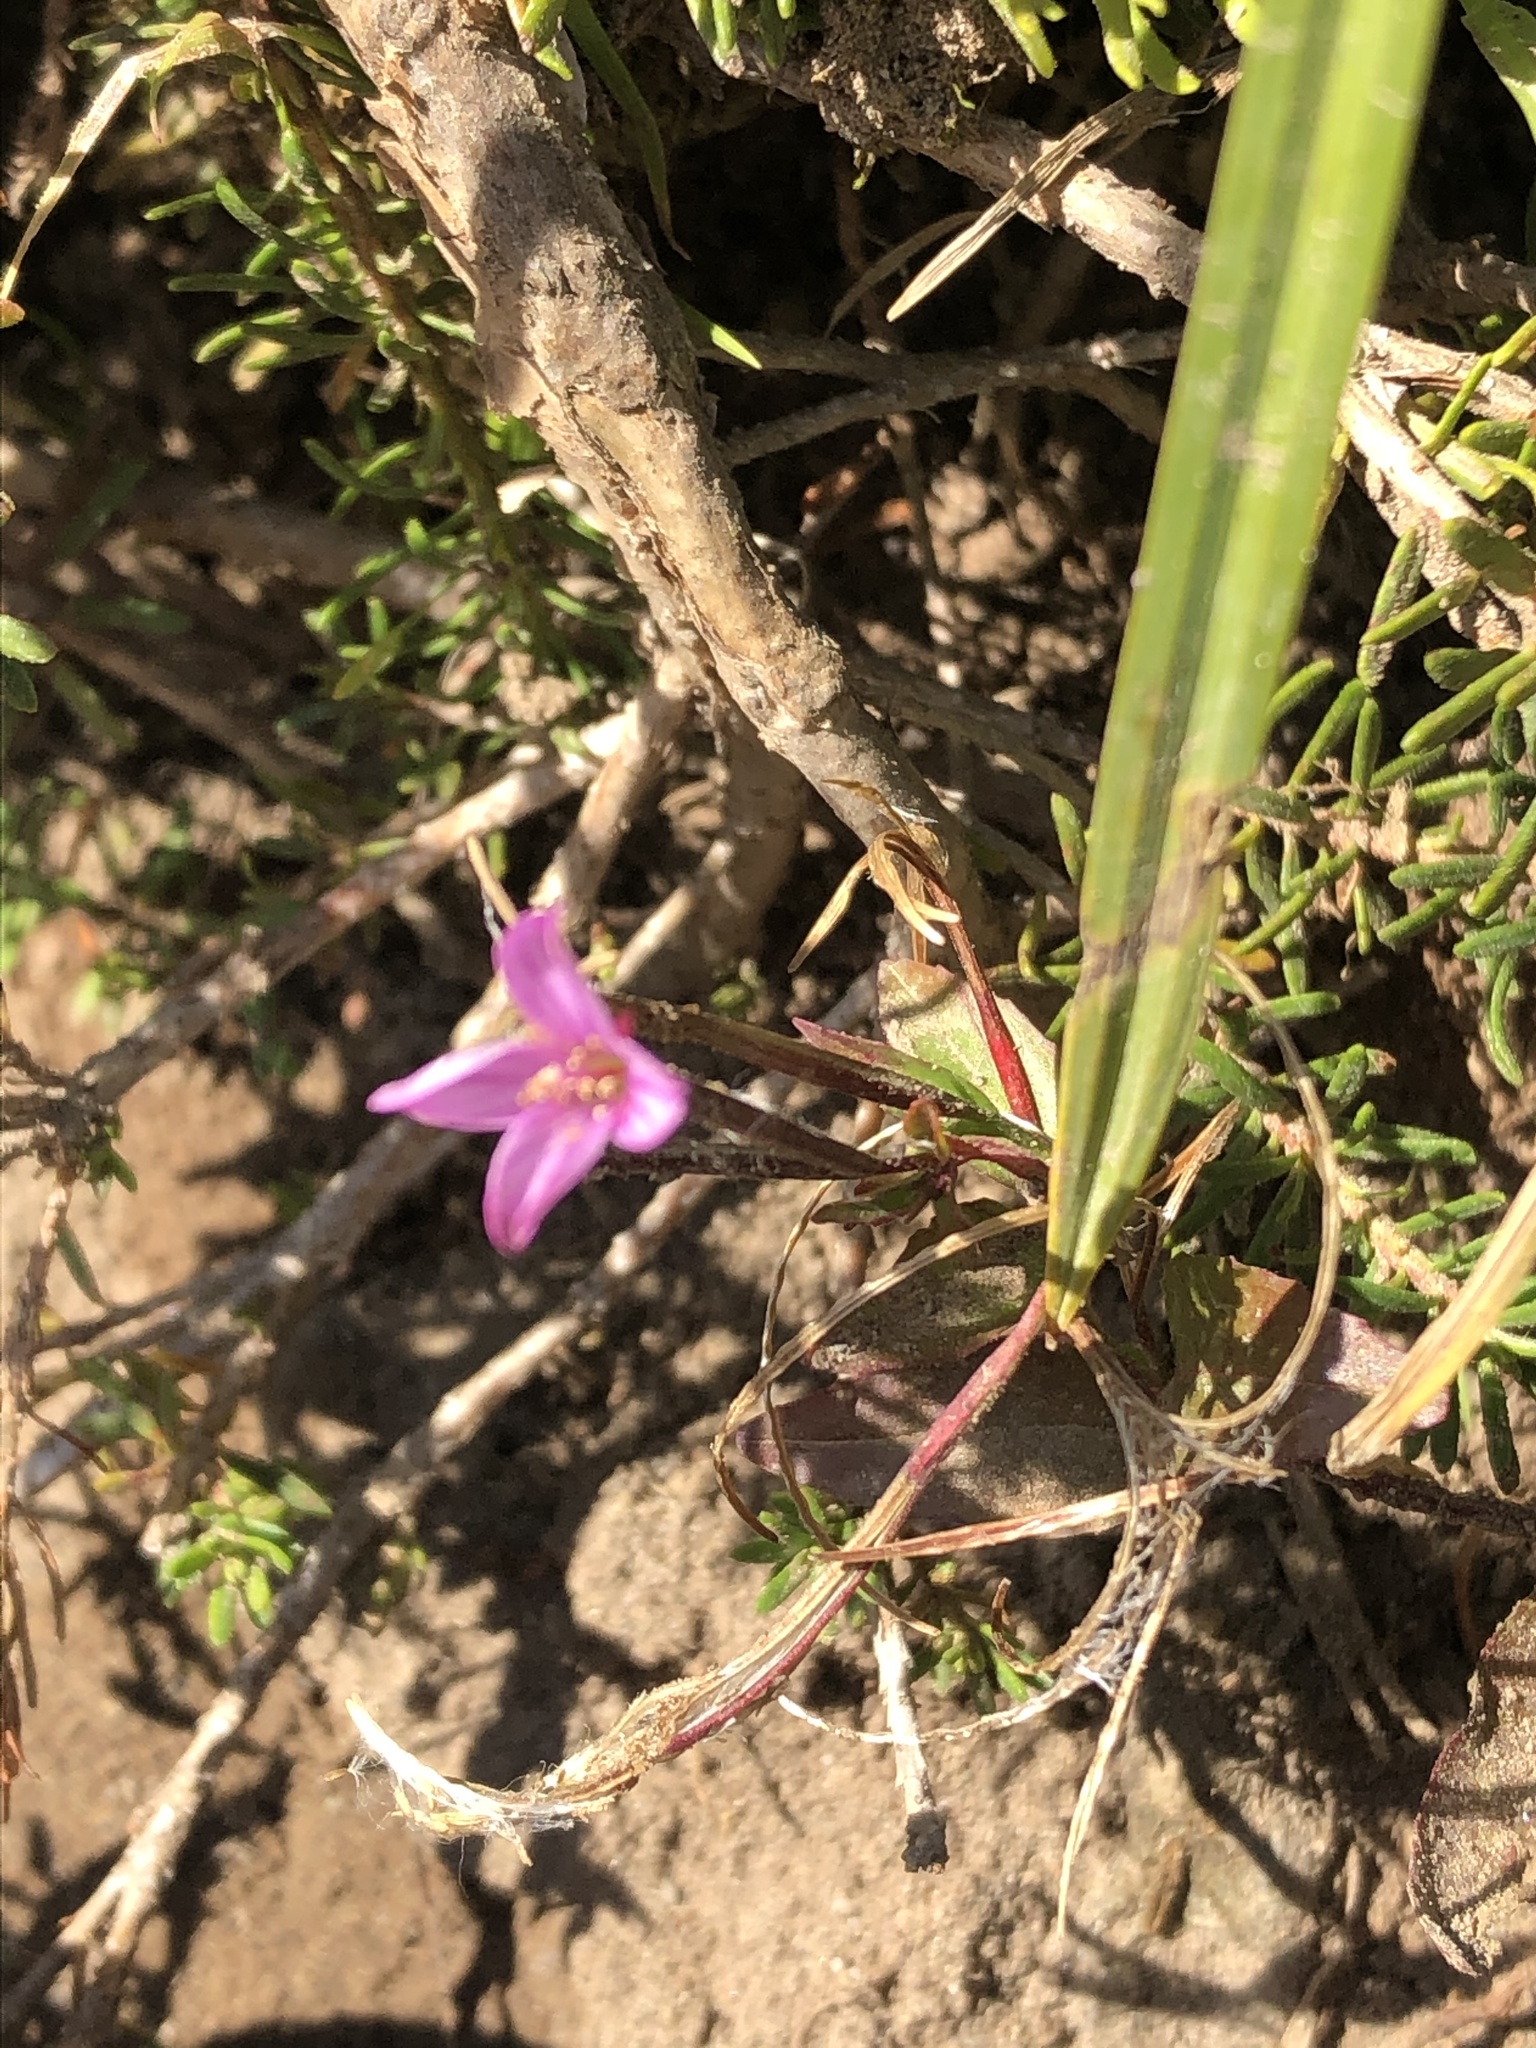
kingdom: Plantae
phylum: Tracheophyta
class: Magnoliopsida
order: Myrtales
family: Onagraceae
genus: Epilobium
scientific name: Epilobium minutum
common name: Chaparral willowherb
